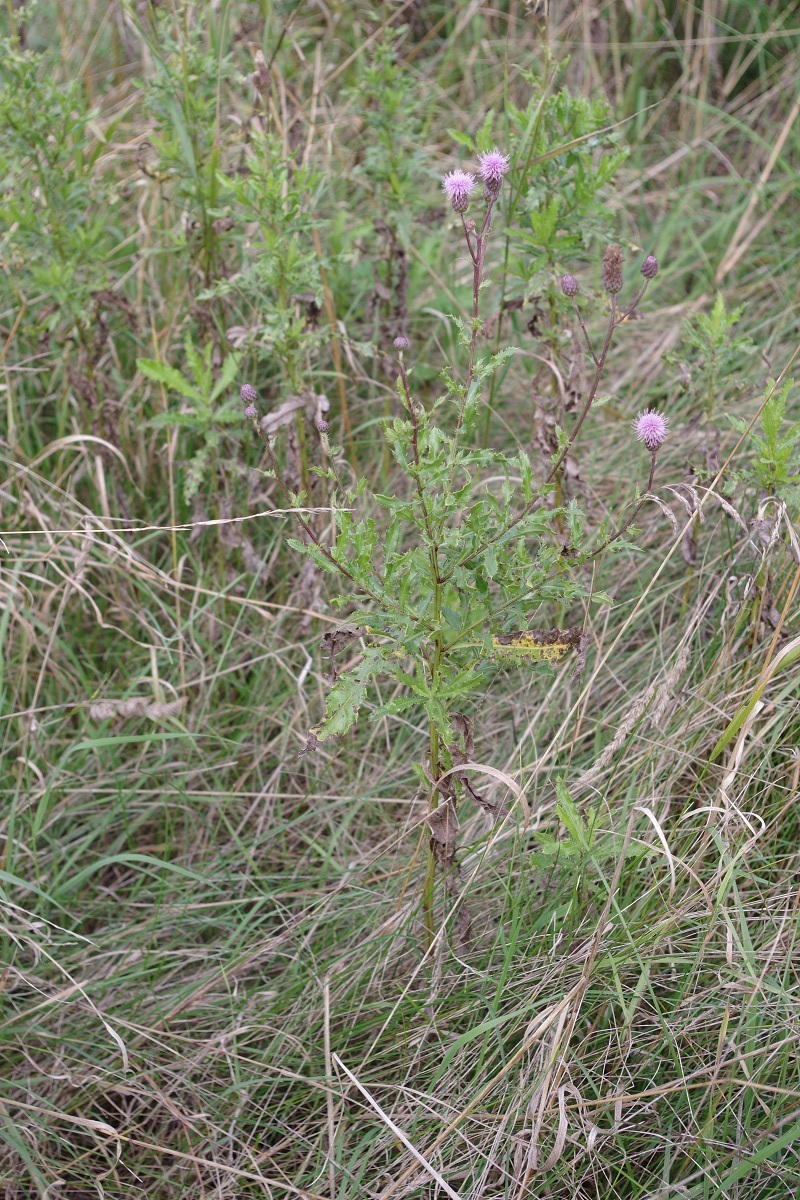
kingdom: Plantae
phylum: Tracheophyta
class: Magnoliopsida
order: Asterales
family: Asteraceae
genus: Cirsium
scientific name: Cirsium arvense
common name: Creeping thistle
